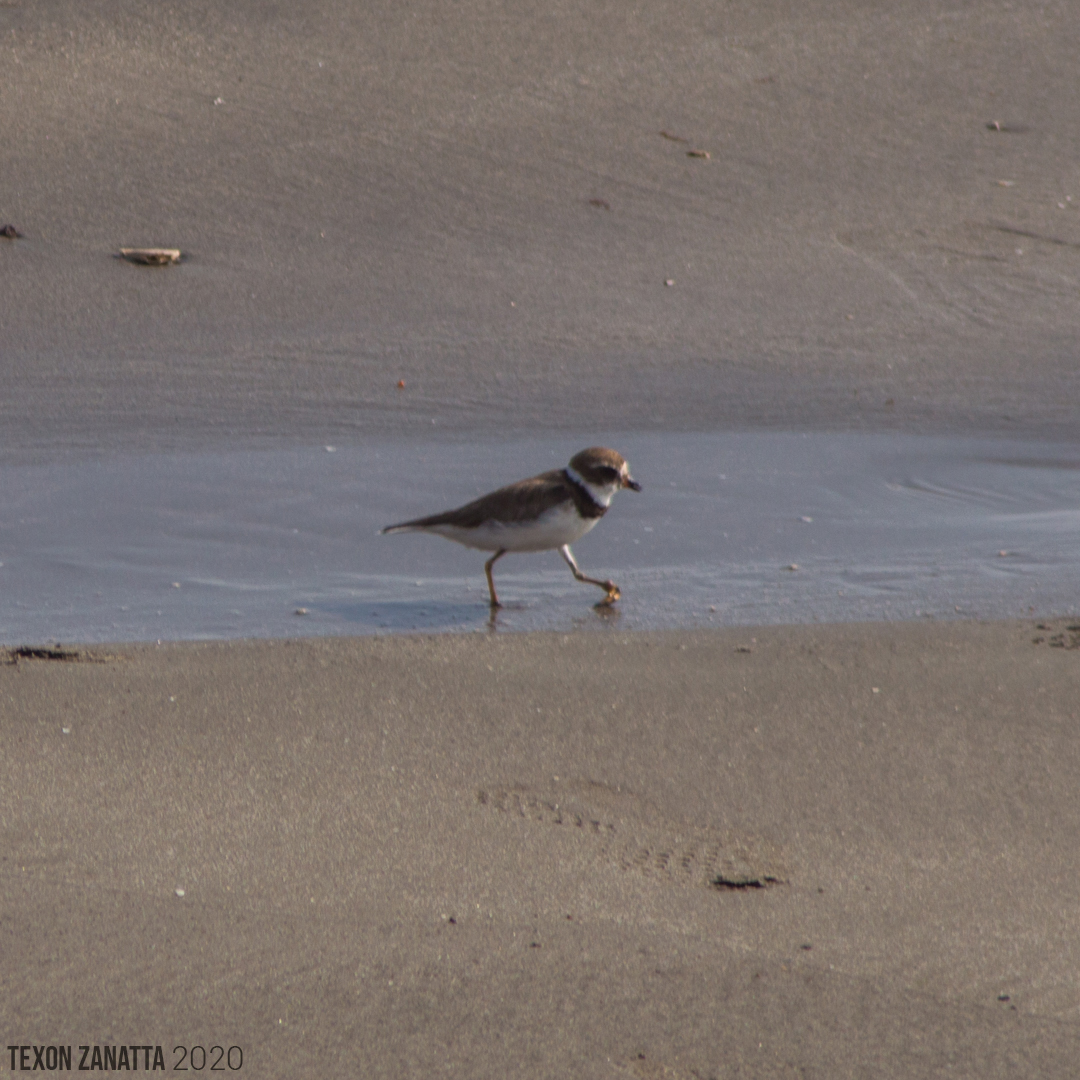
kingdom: Animalia
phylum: Chordata
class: Aves
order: Charadriiformes
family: Charadriidae
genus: Charadrius
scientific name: Charadrius semipalmatus
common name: Semipalmated plover
